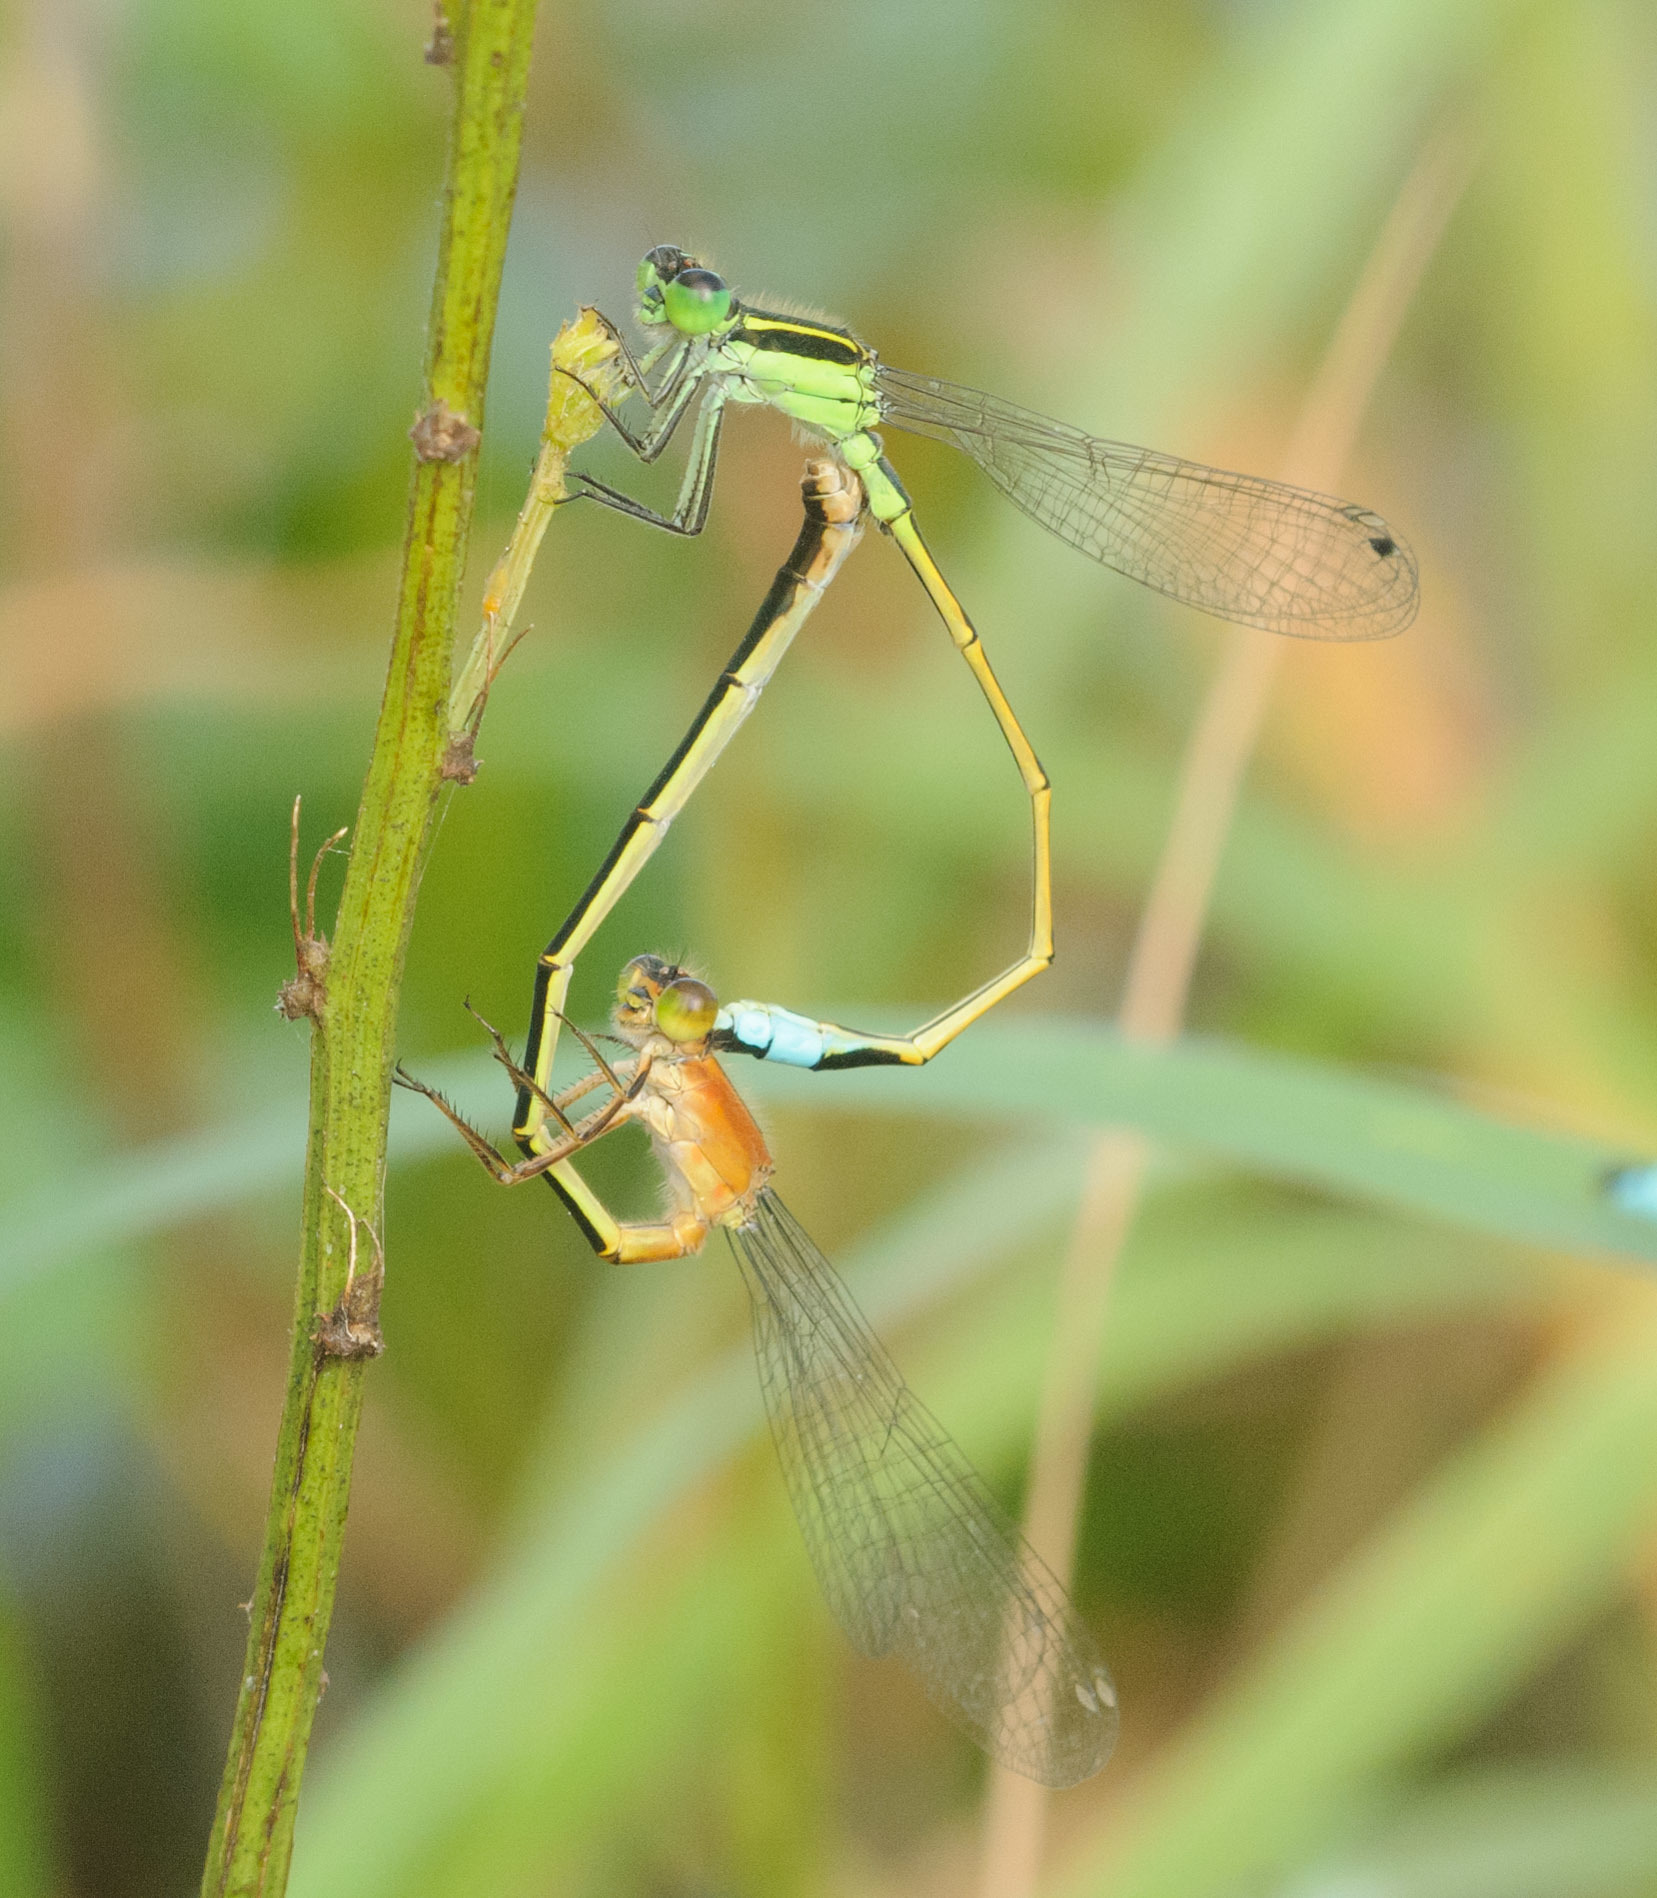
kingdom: Animalia
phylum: Arthropoda
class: Insecta
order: Odonata
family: Coenagrionidae
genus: Ischnura
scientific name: Ischnura ramburii
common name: Rambur's forktail
